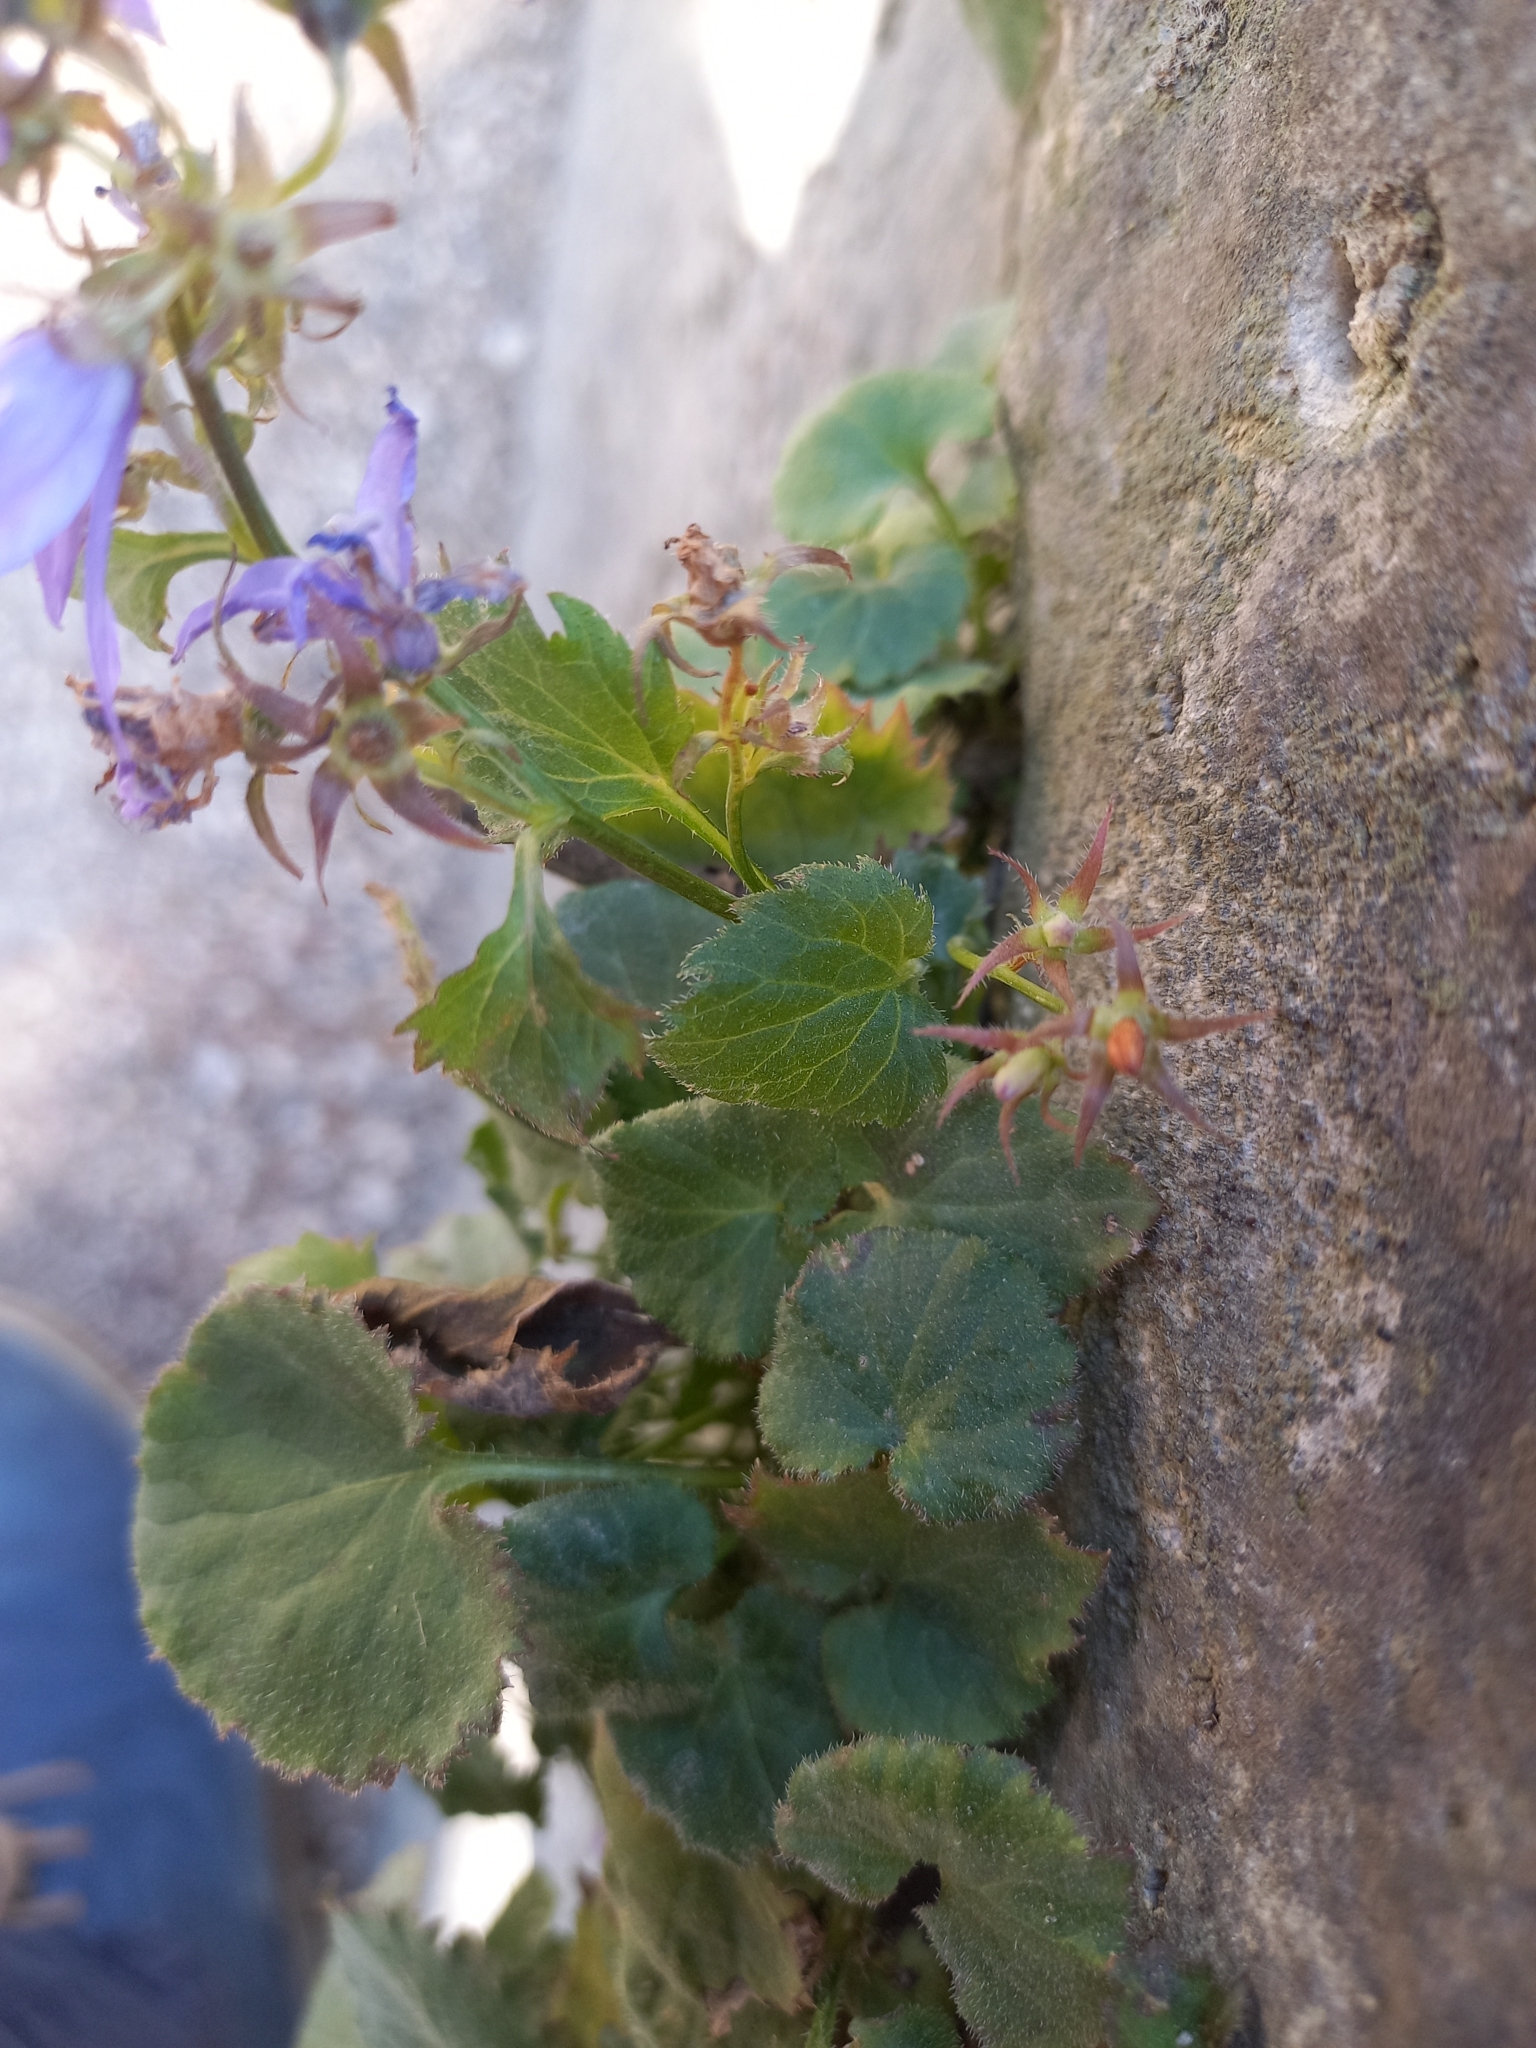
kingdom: Plantae
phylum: Tracheophyta
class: Magnoliopsida
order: Asterales
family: Campanulaceae
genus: Campanula
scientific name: Campanula poscharskyana
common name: Trailing bellflower
